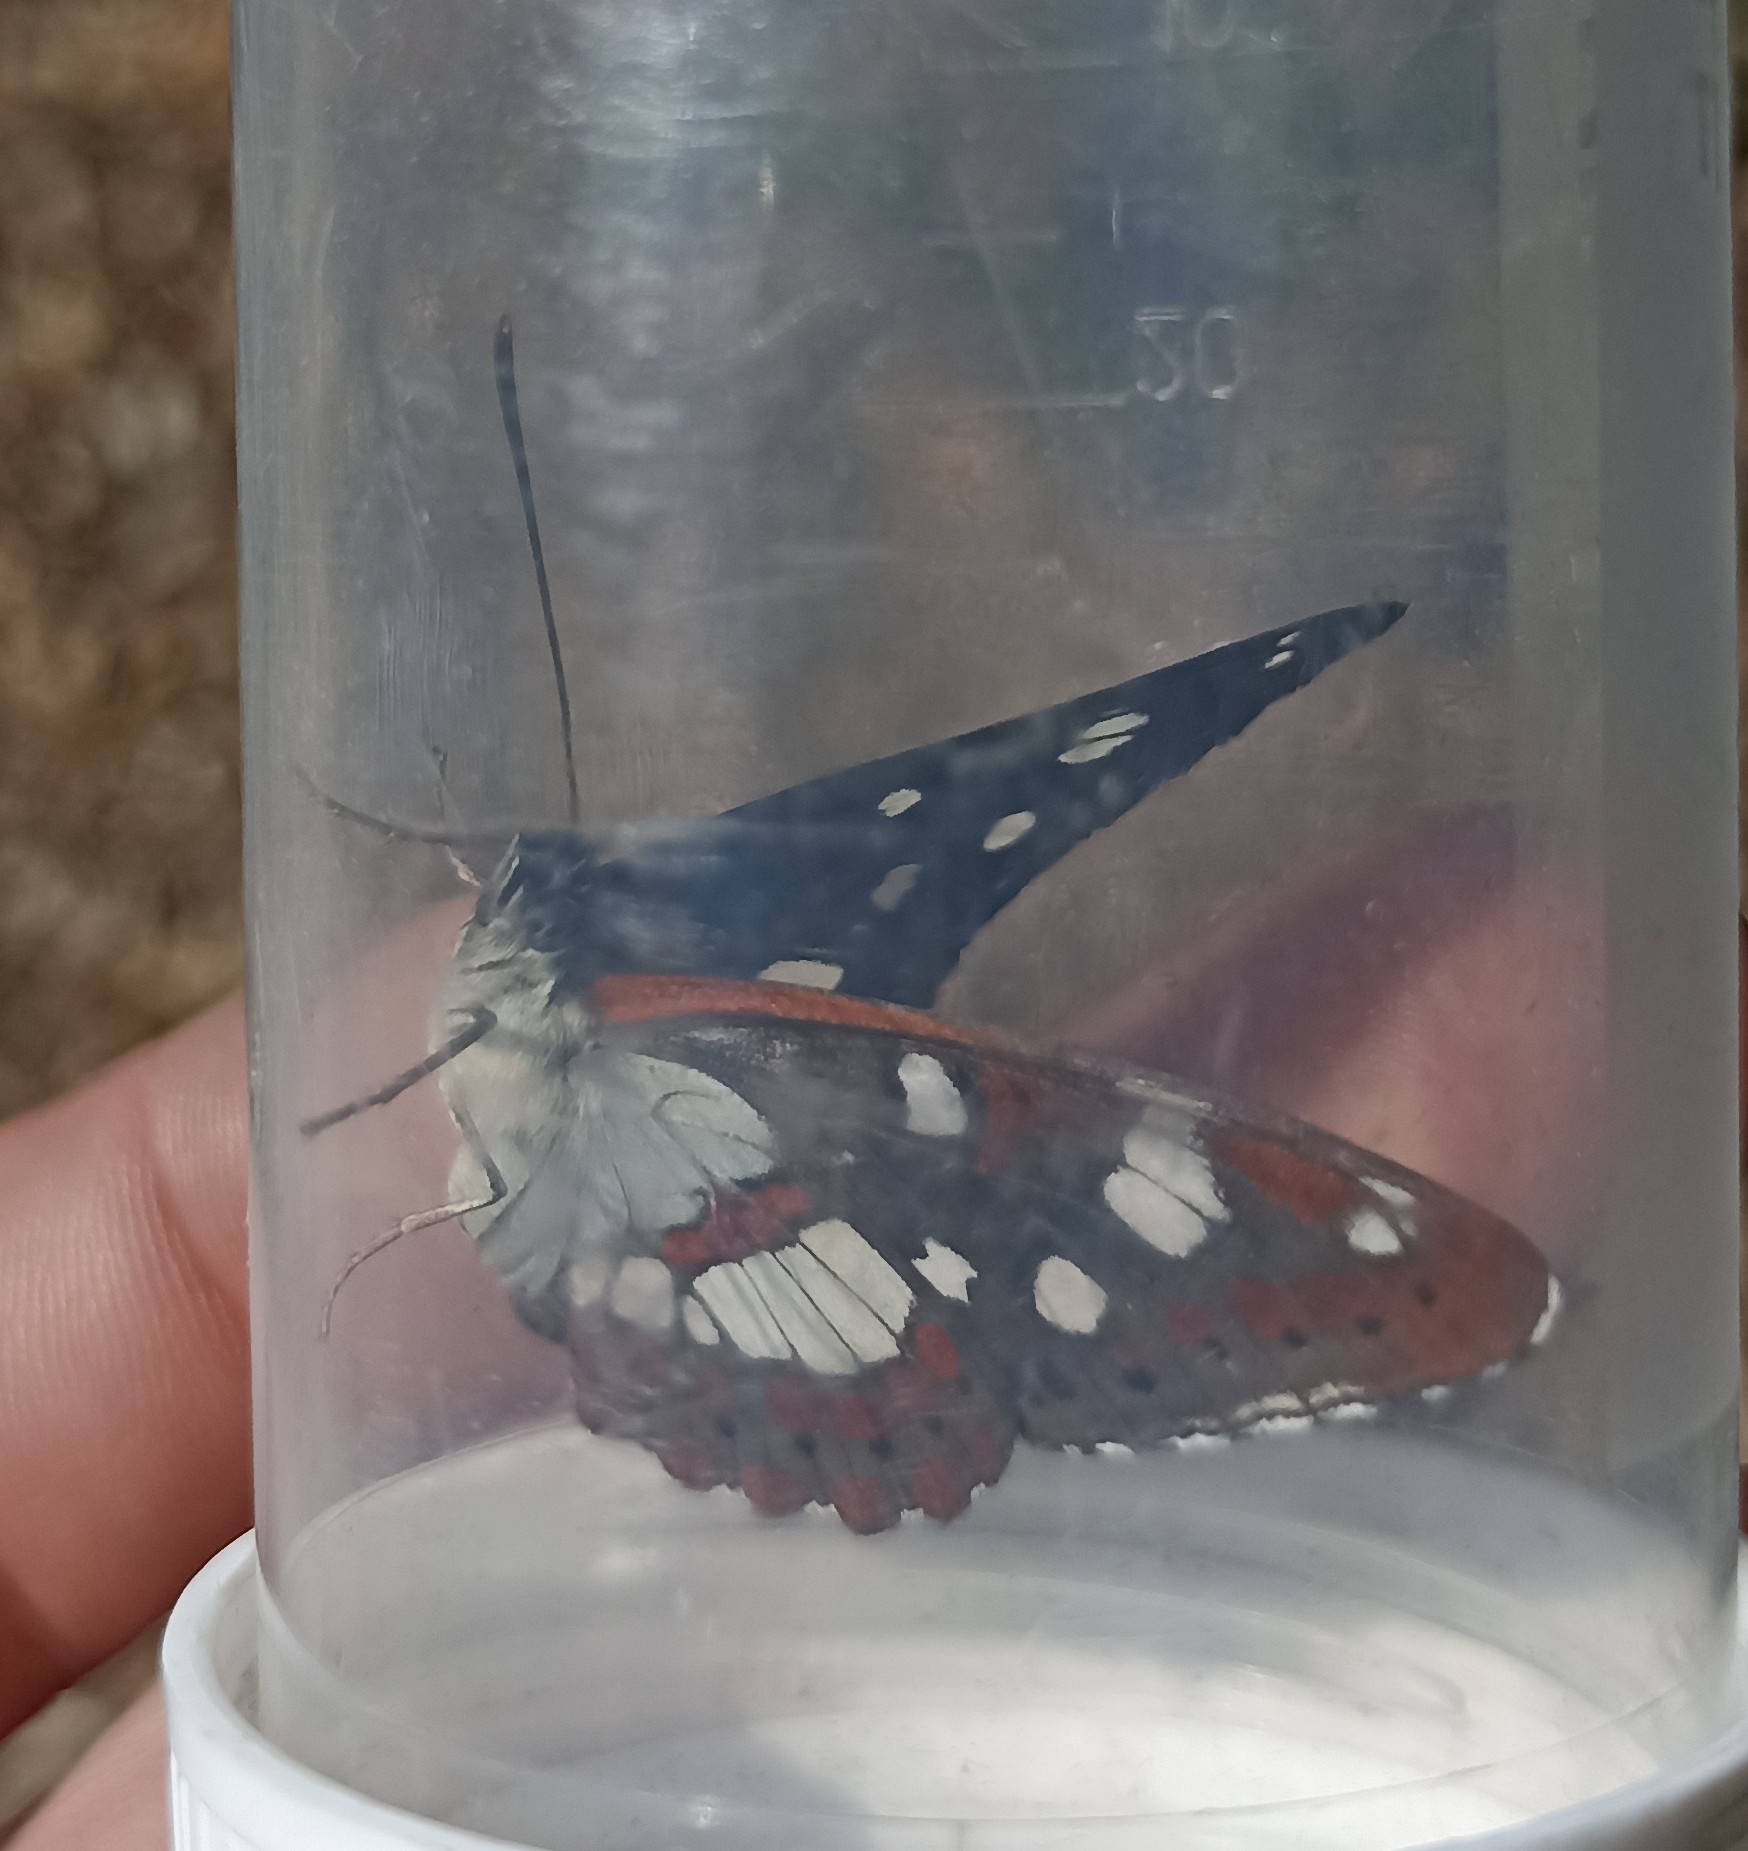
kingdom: Animalia
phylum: Arthropoda
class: Insecta
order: Lepidoptera
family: Nymphalidae
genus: Limenitis
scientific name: Limenitis reducta
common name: Southern white admiral
